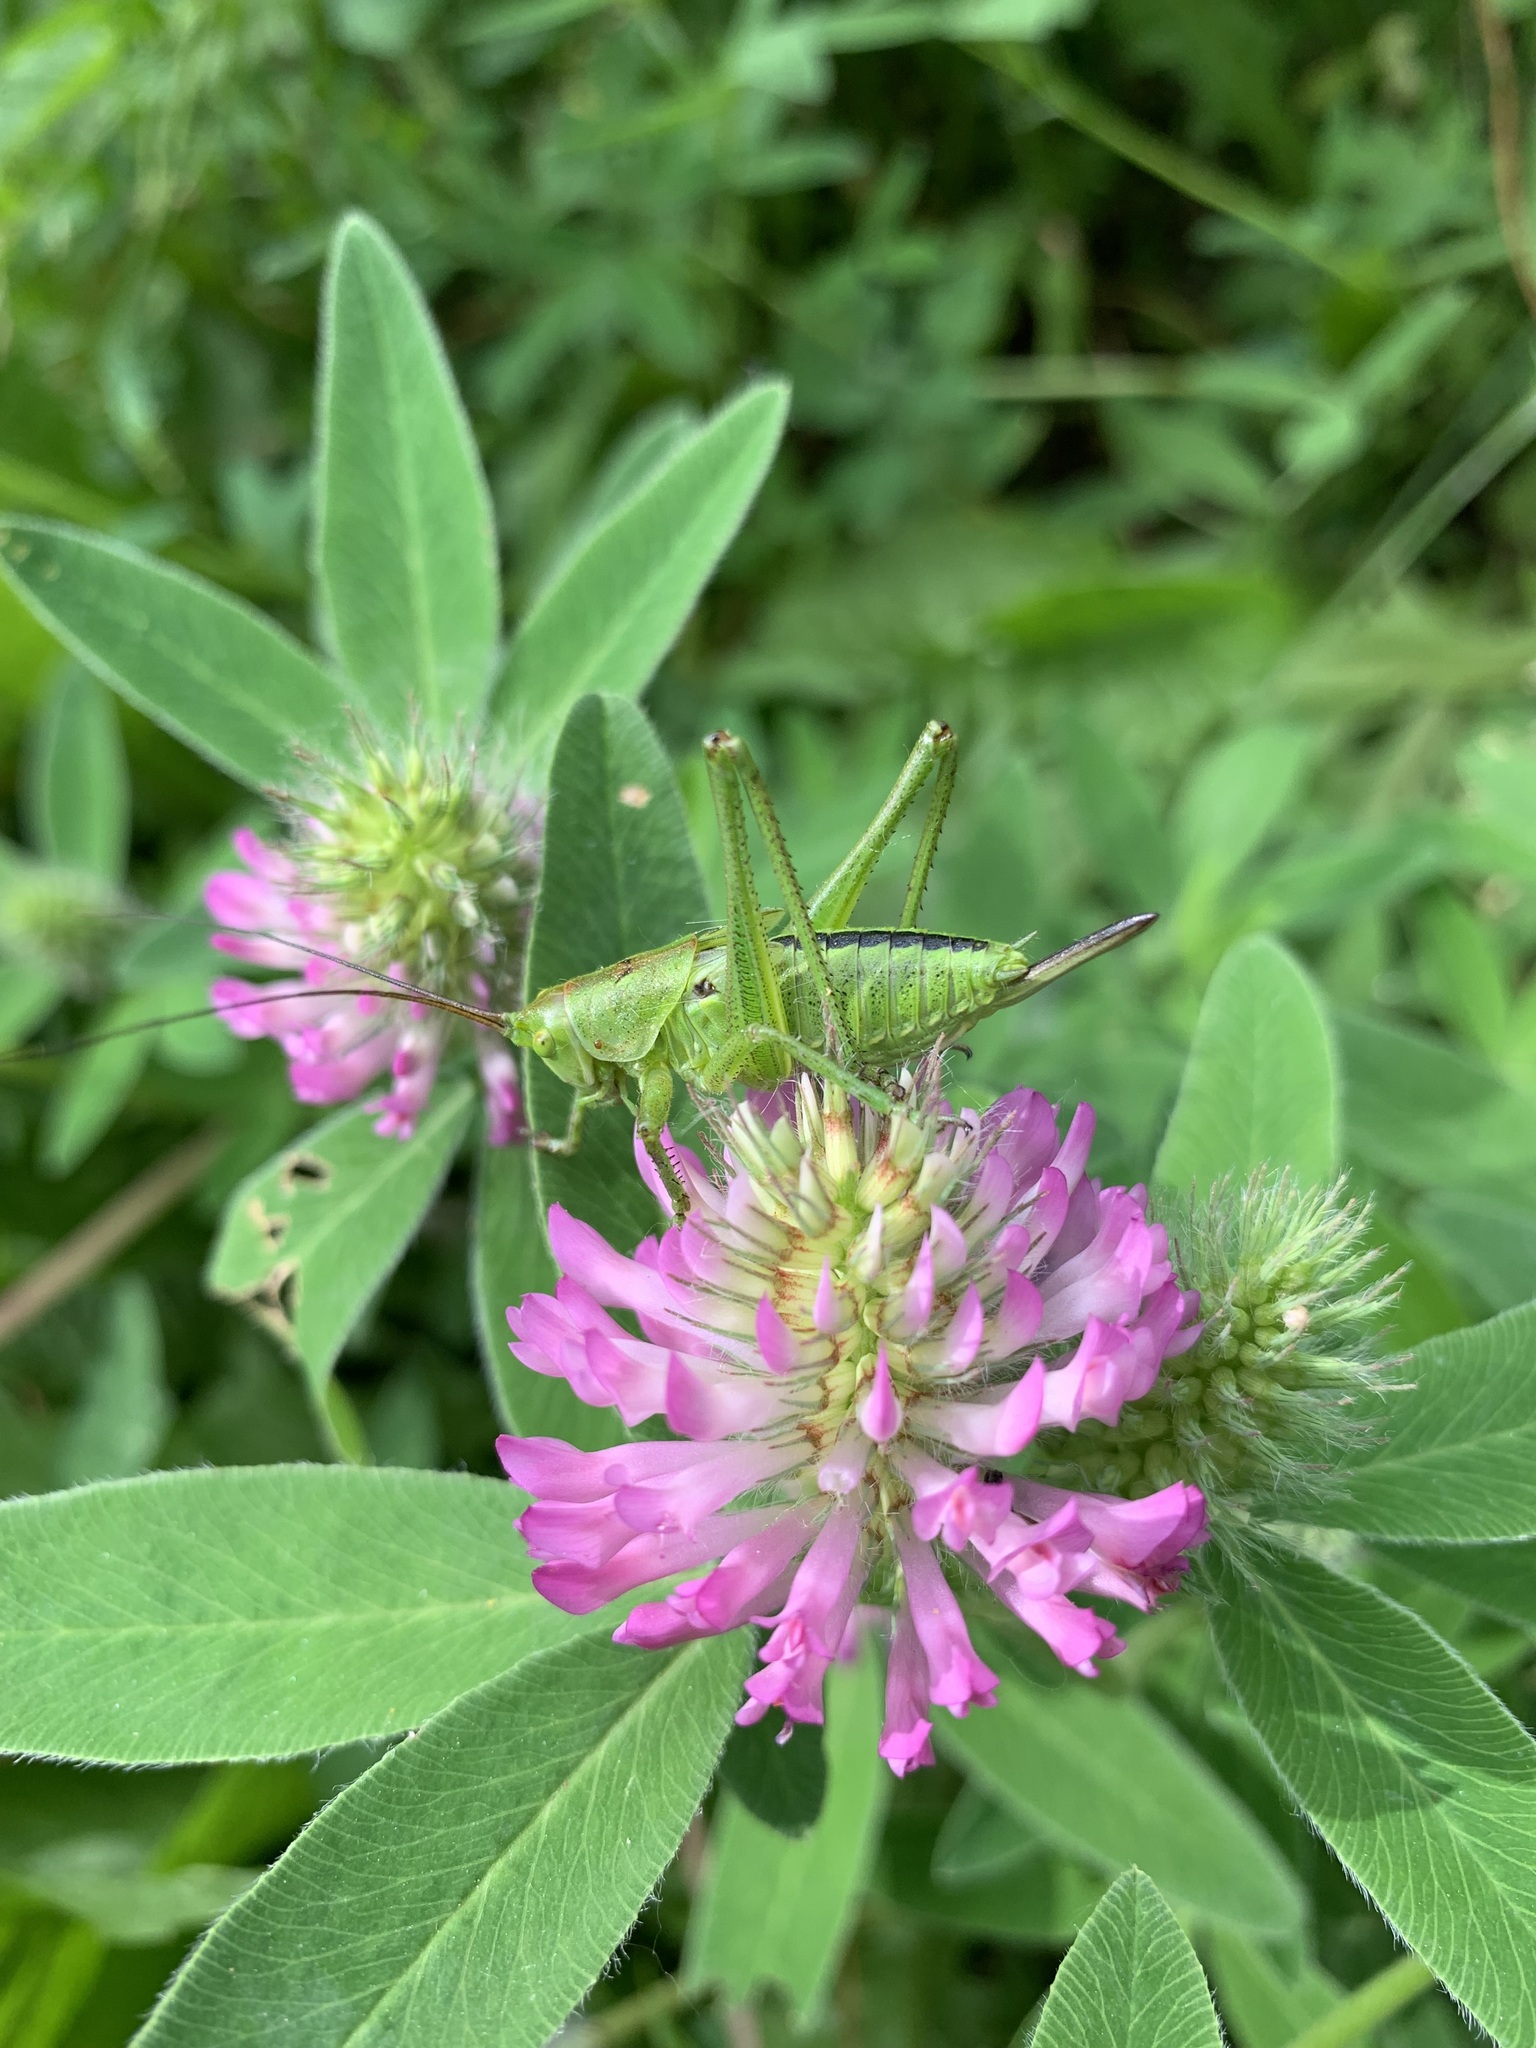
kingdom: Plantae
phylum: Tracheophyta
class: Magnoliopsida
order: Fabales
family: Fabaceae
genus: Trifolium
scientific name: Trifolium medium
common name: Zigzag clover
